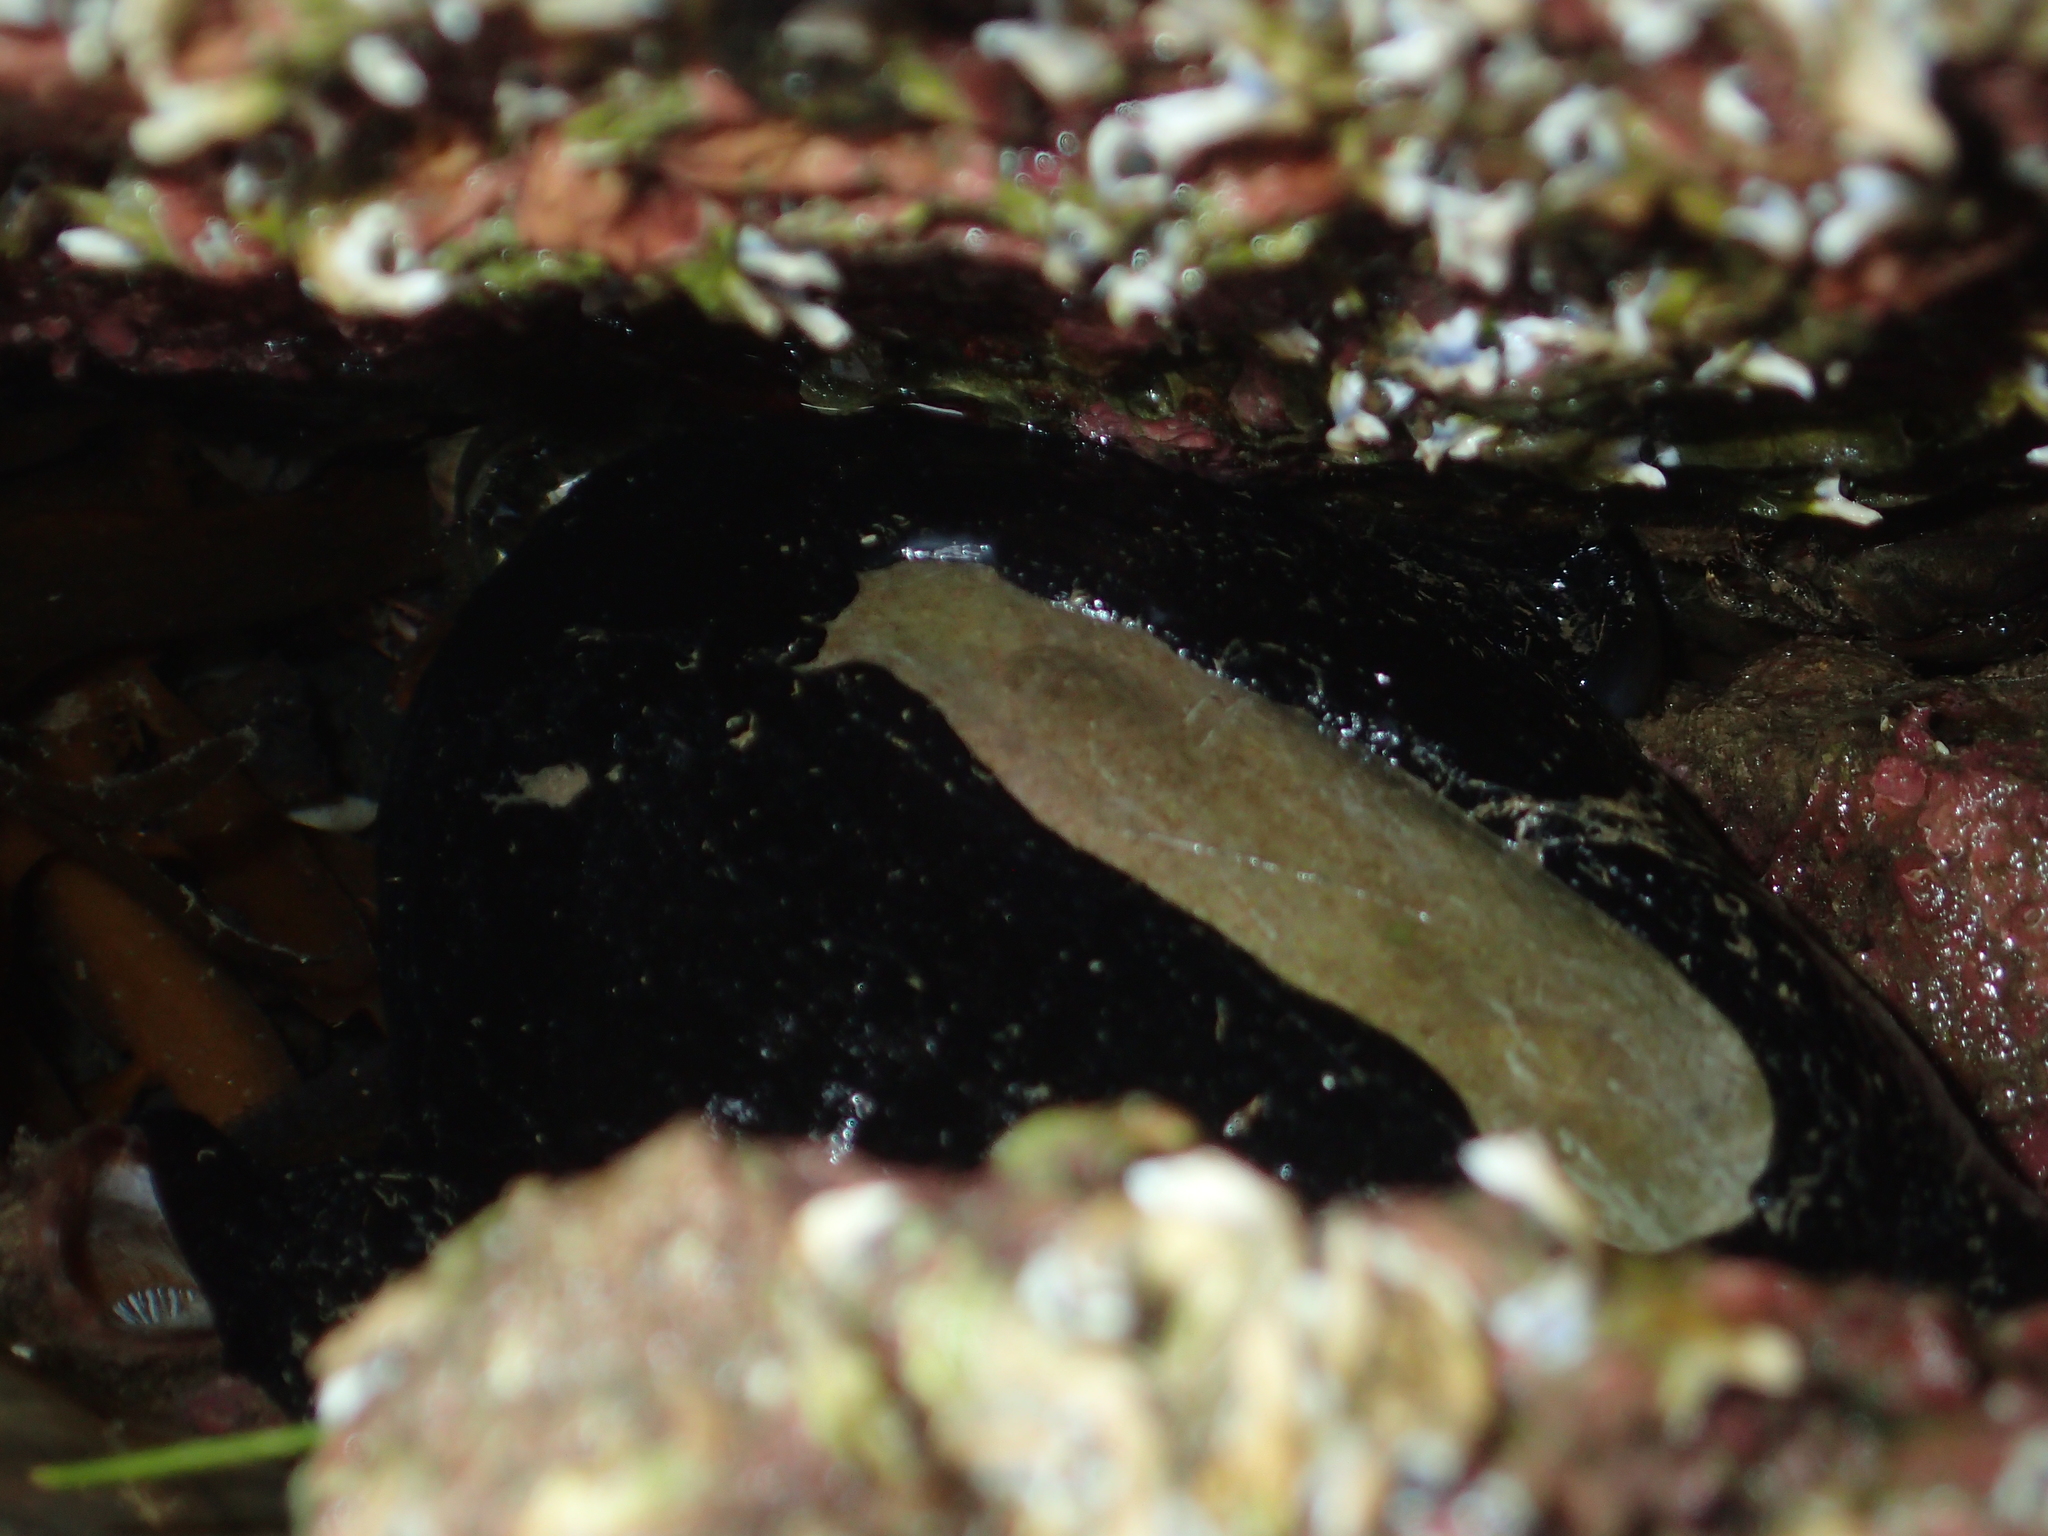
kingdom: Animalia
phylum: Mollusca
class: Gastropoda
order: Lepetellida
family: Fissurellidae
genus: Scutus
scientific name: Scutus breviculus
